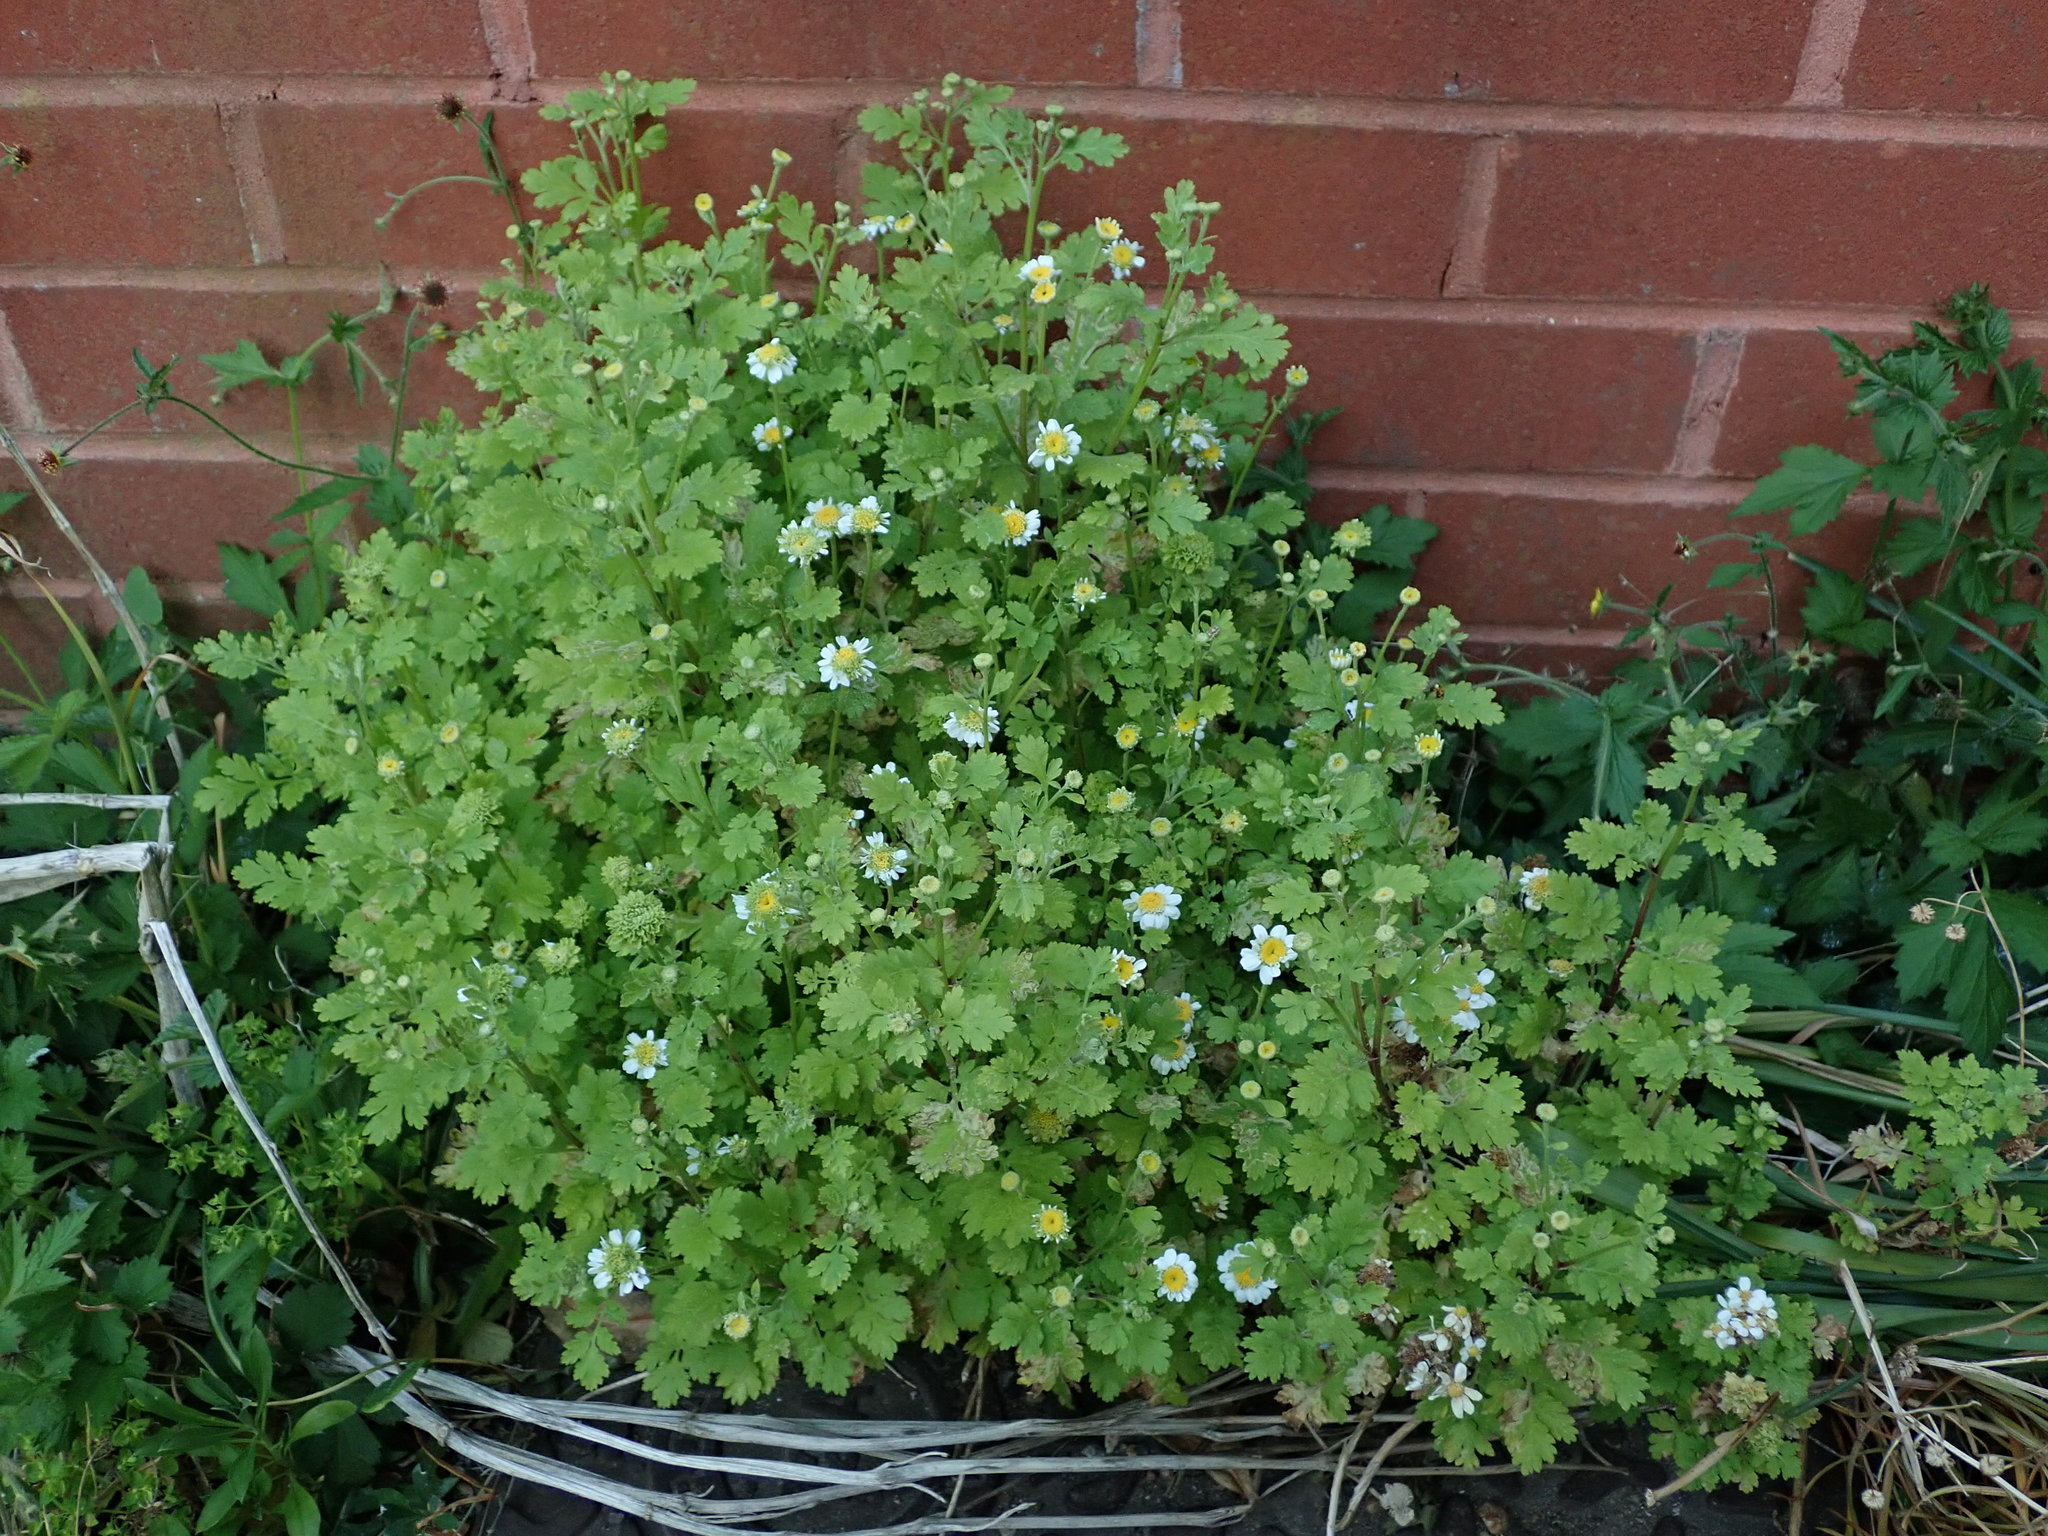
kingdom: Plantae
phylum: Tracheophyta
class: Magnoliopsida
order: Asterales
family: Asteraceae
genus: Tanacetum
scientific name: Tanacetum parthenium
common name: Feverfew
